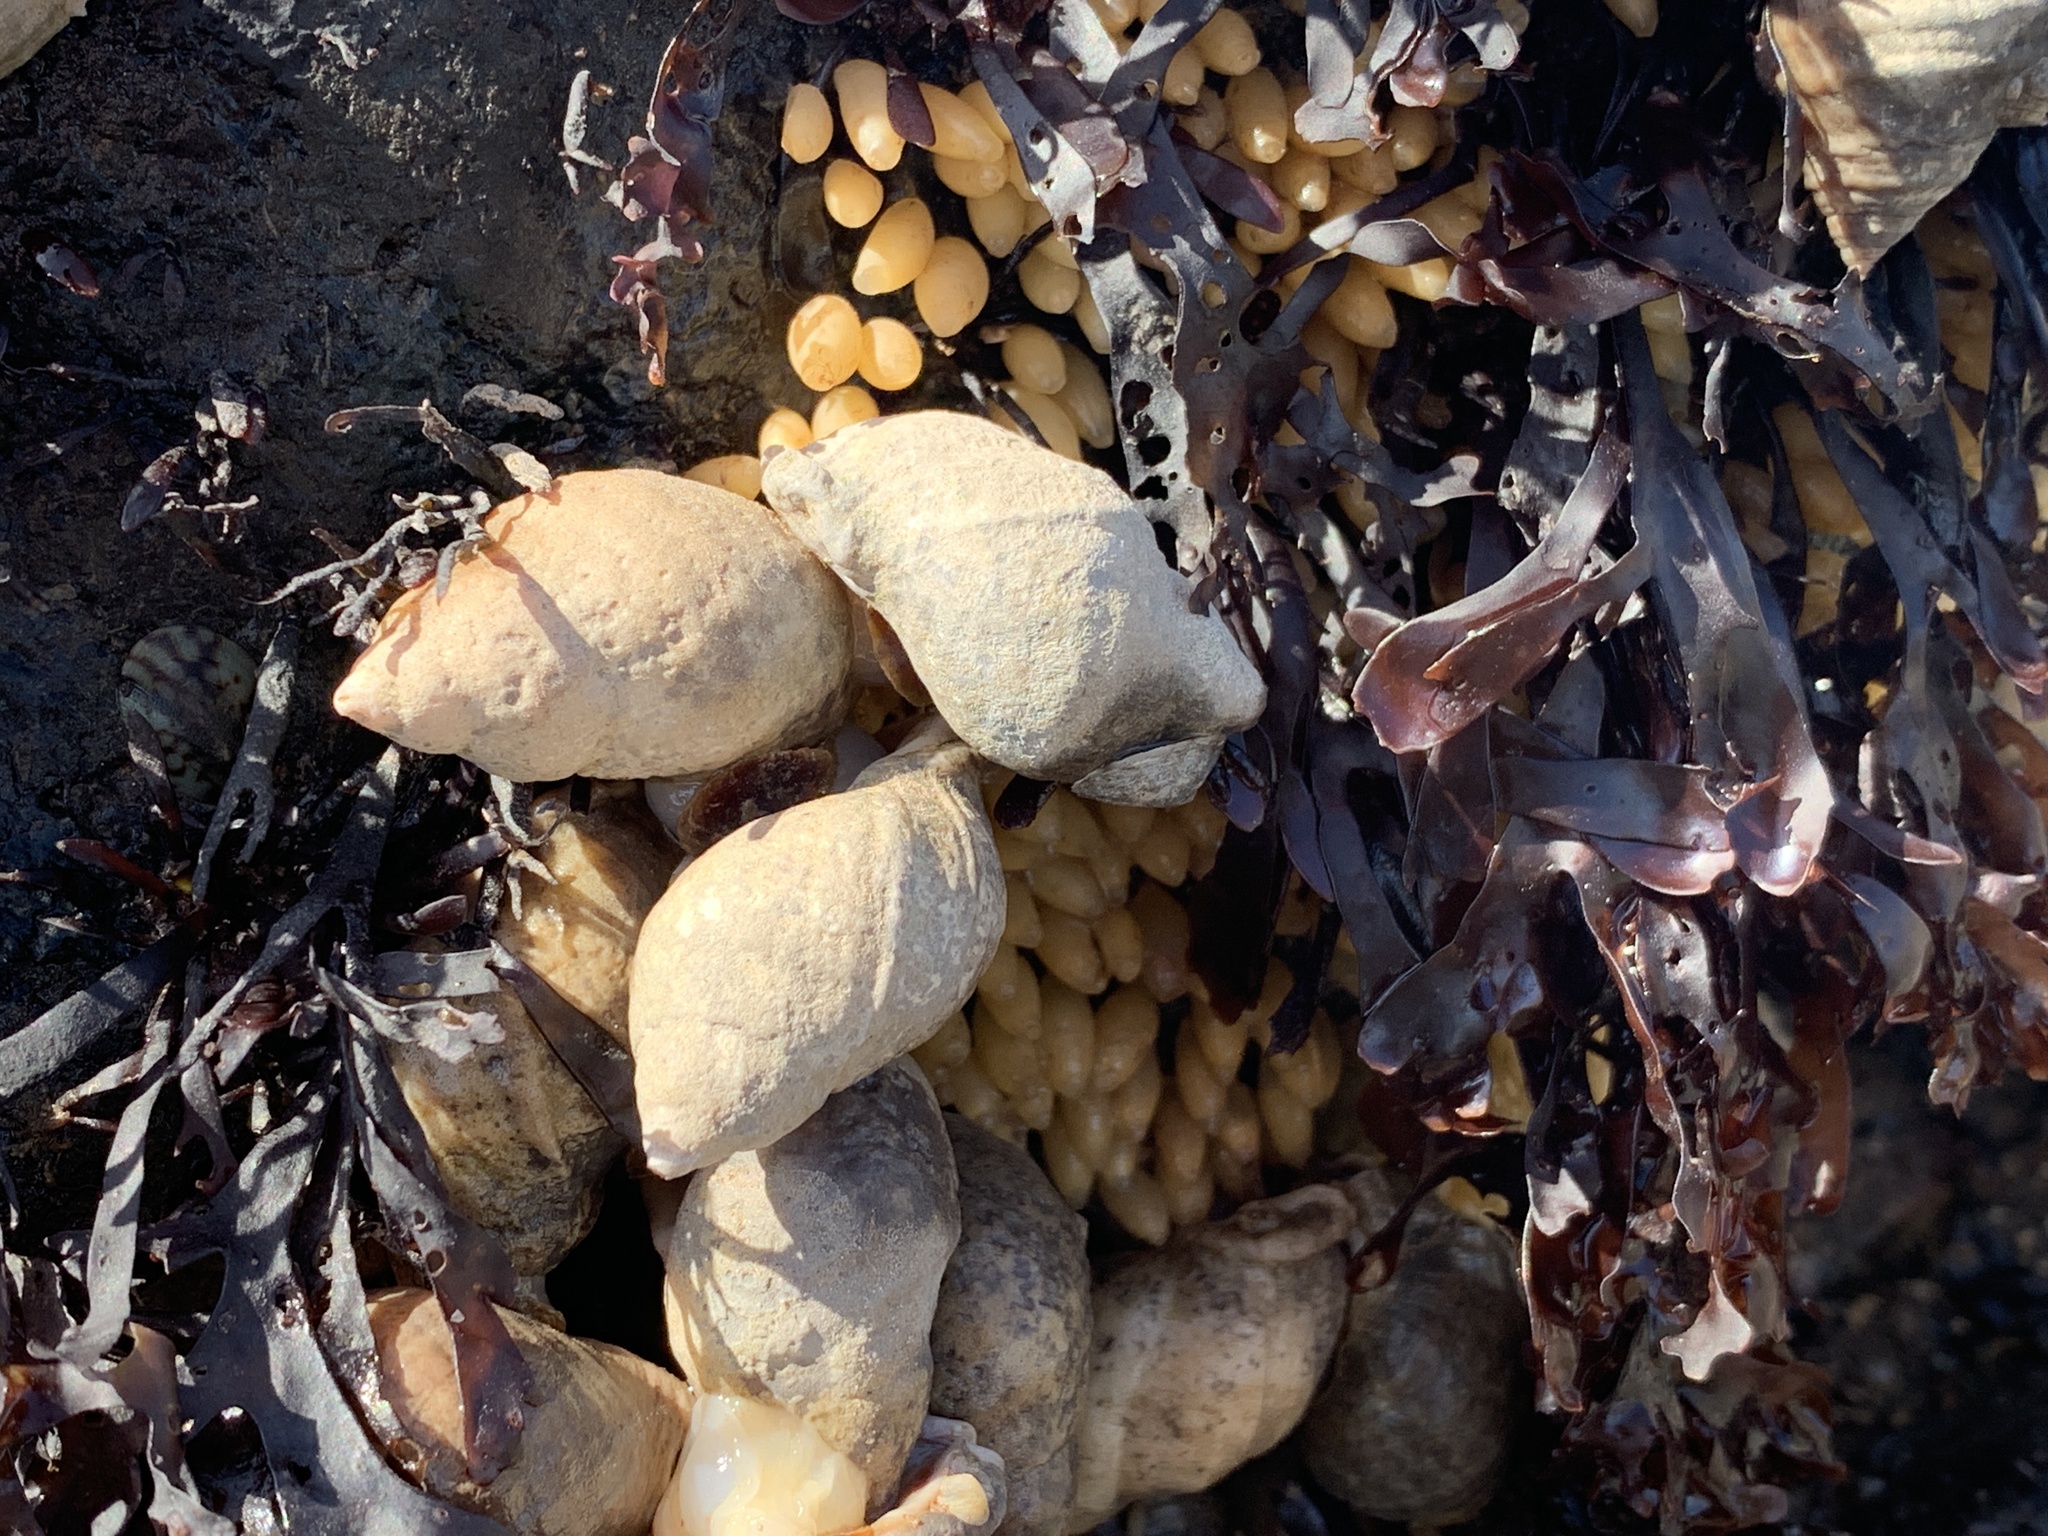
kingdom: Animalia
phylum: Mollusca
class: Gastropoda
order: Neogastropoda
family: Muricidae
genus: Nucella
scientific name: Nucella lapillus
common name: Dog whelk
